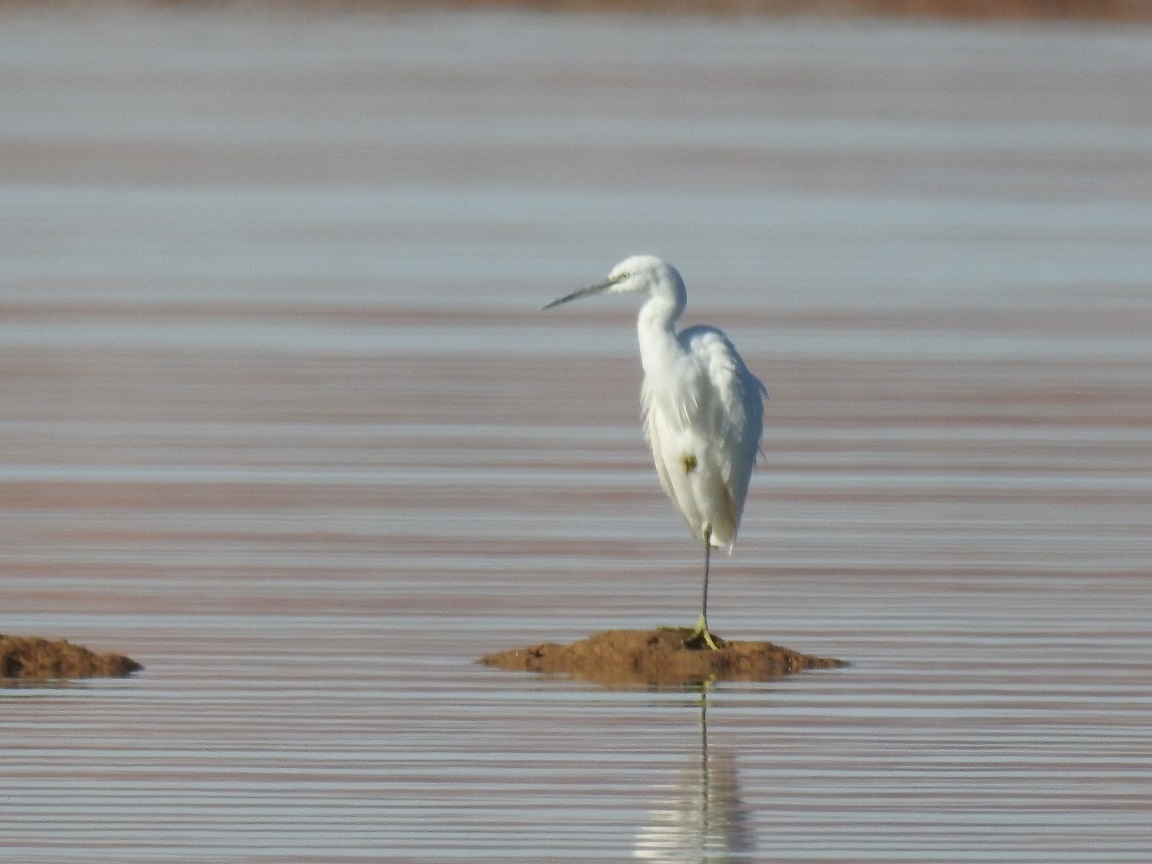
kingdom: Animalia
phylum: Chordata
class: Aves
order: Pelecaniformes
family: Ardeidae
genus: Egretta
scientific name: Egretta garzetta
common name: Little egret
